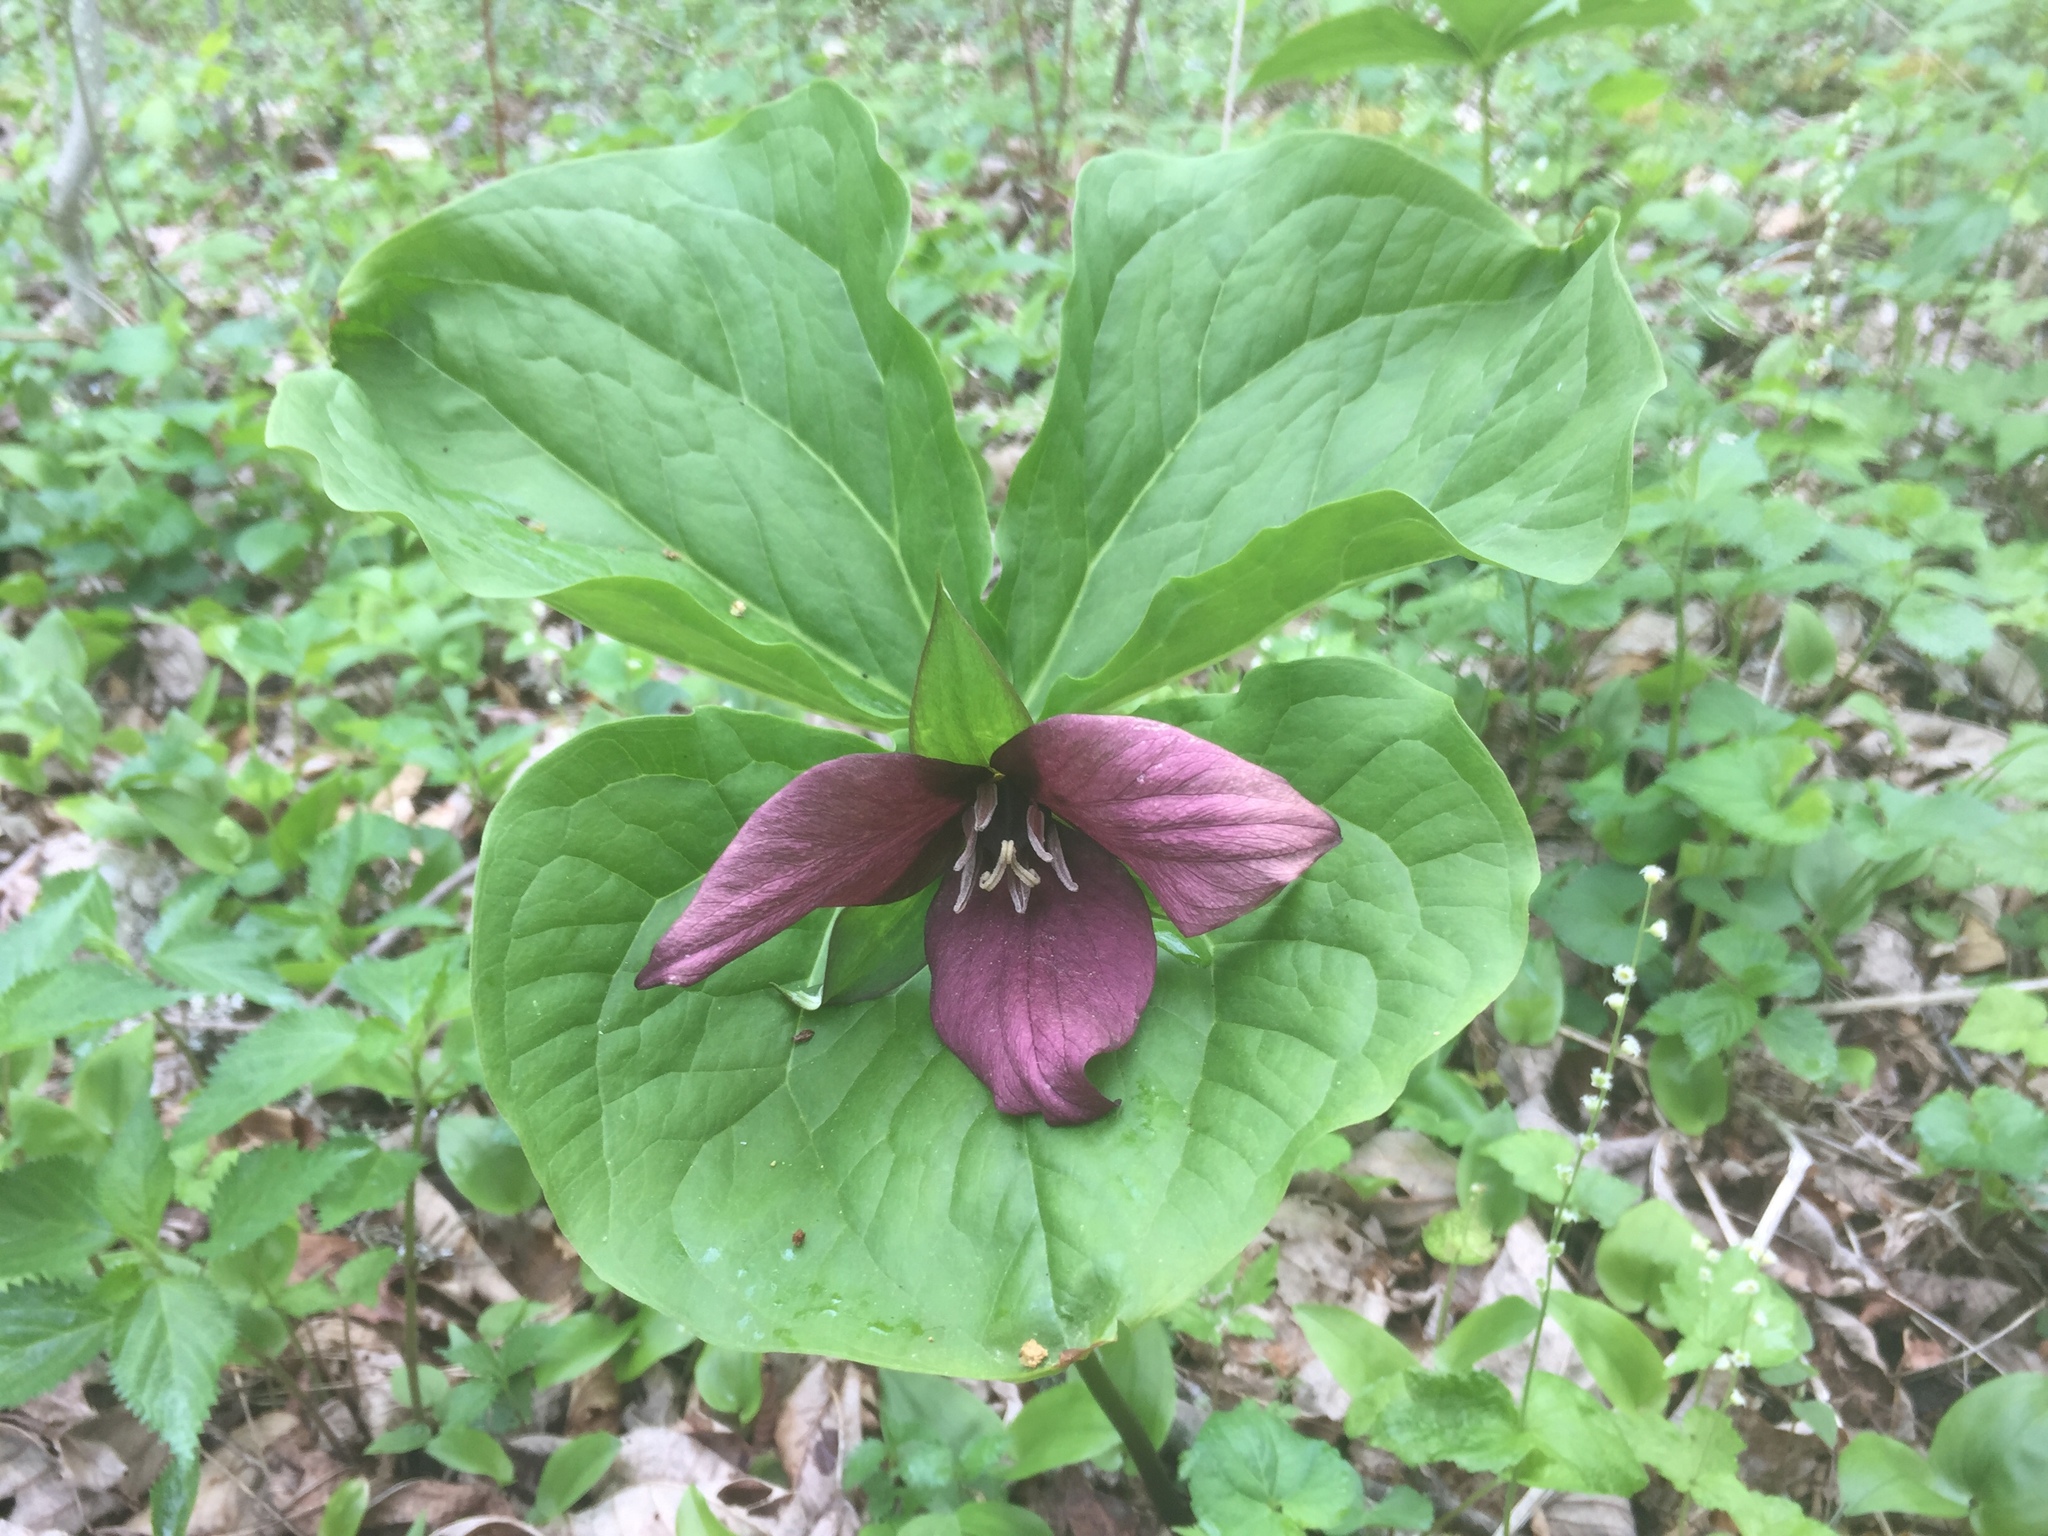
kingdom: Plantae
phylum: Tracheophyta
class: Liliopsida
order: Liliales
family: Melanthiaceae
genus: Trillium
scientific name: Trillium erectum
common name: Purple trillium
